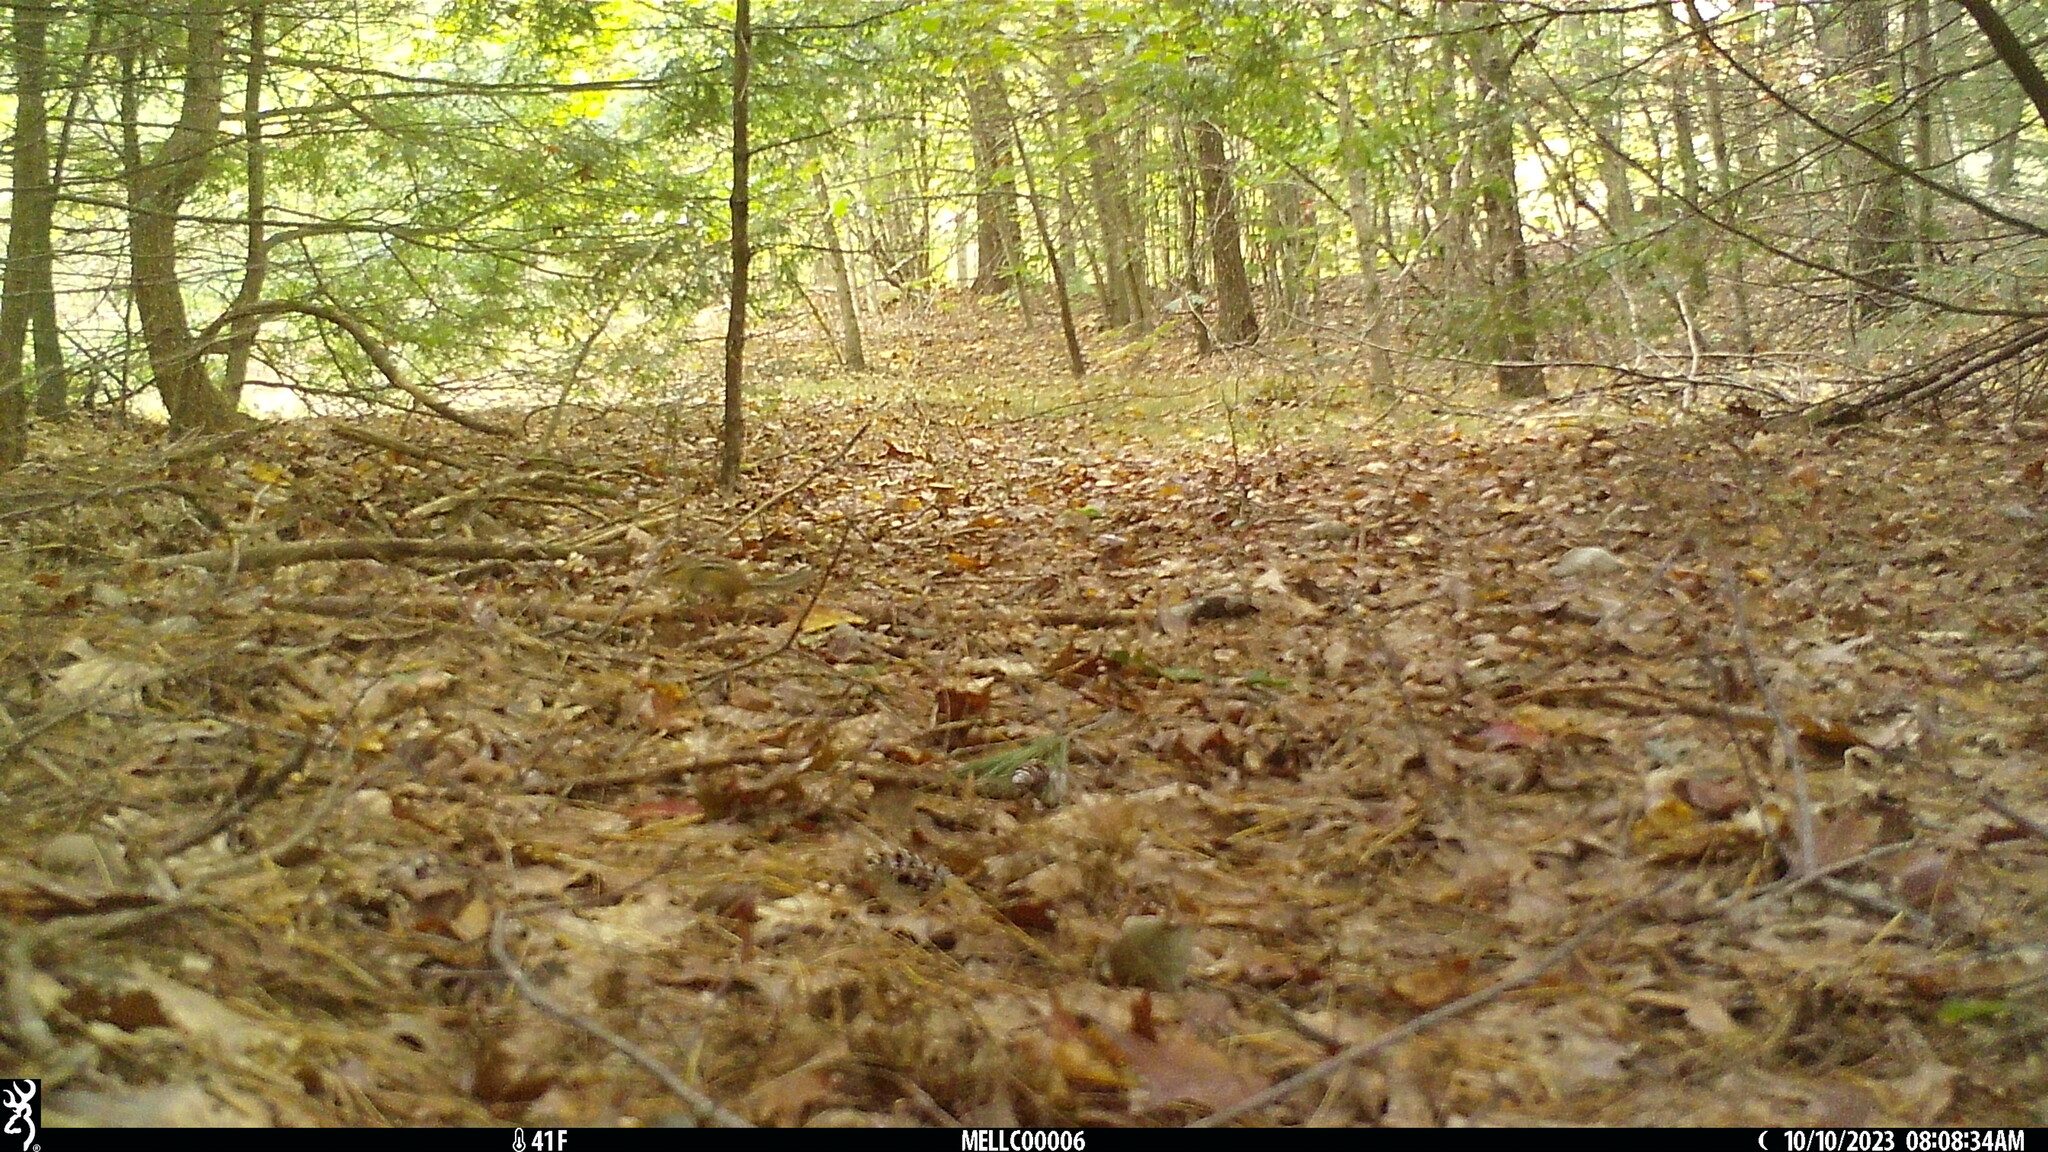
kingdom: Animalia
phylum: Chordata
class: Mammalia
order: Rodentia
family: Sciuridae
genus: Tamias
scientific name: Tamias striatus
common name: Eastern chipmunk
